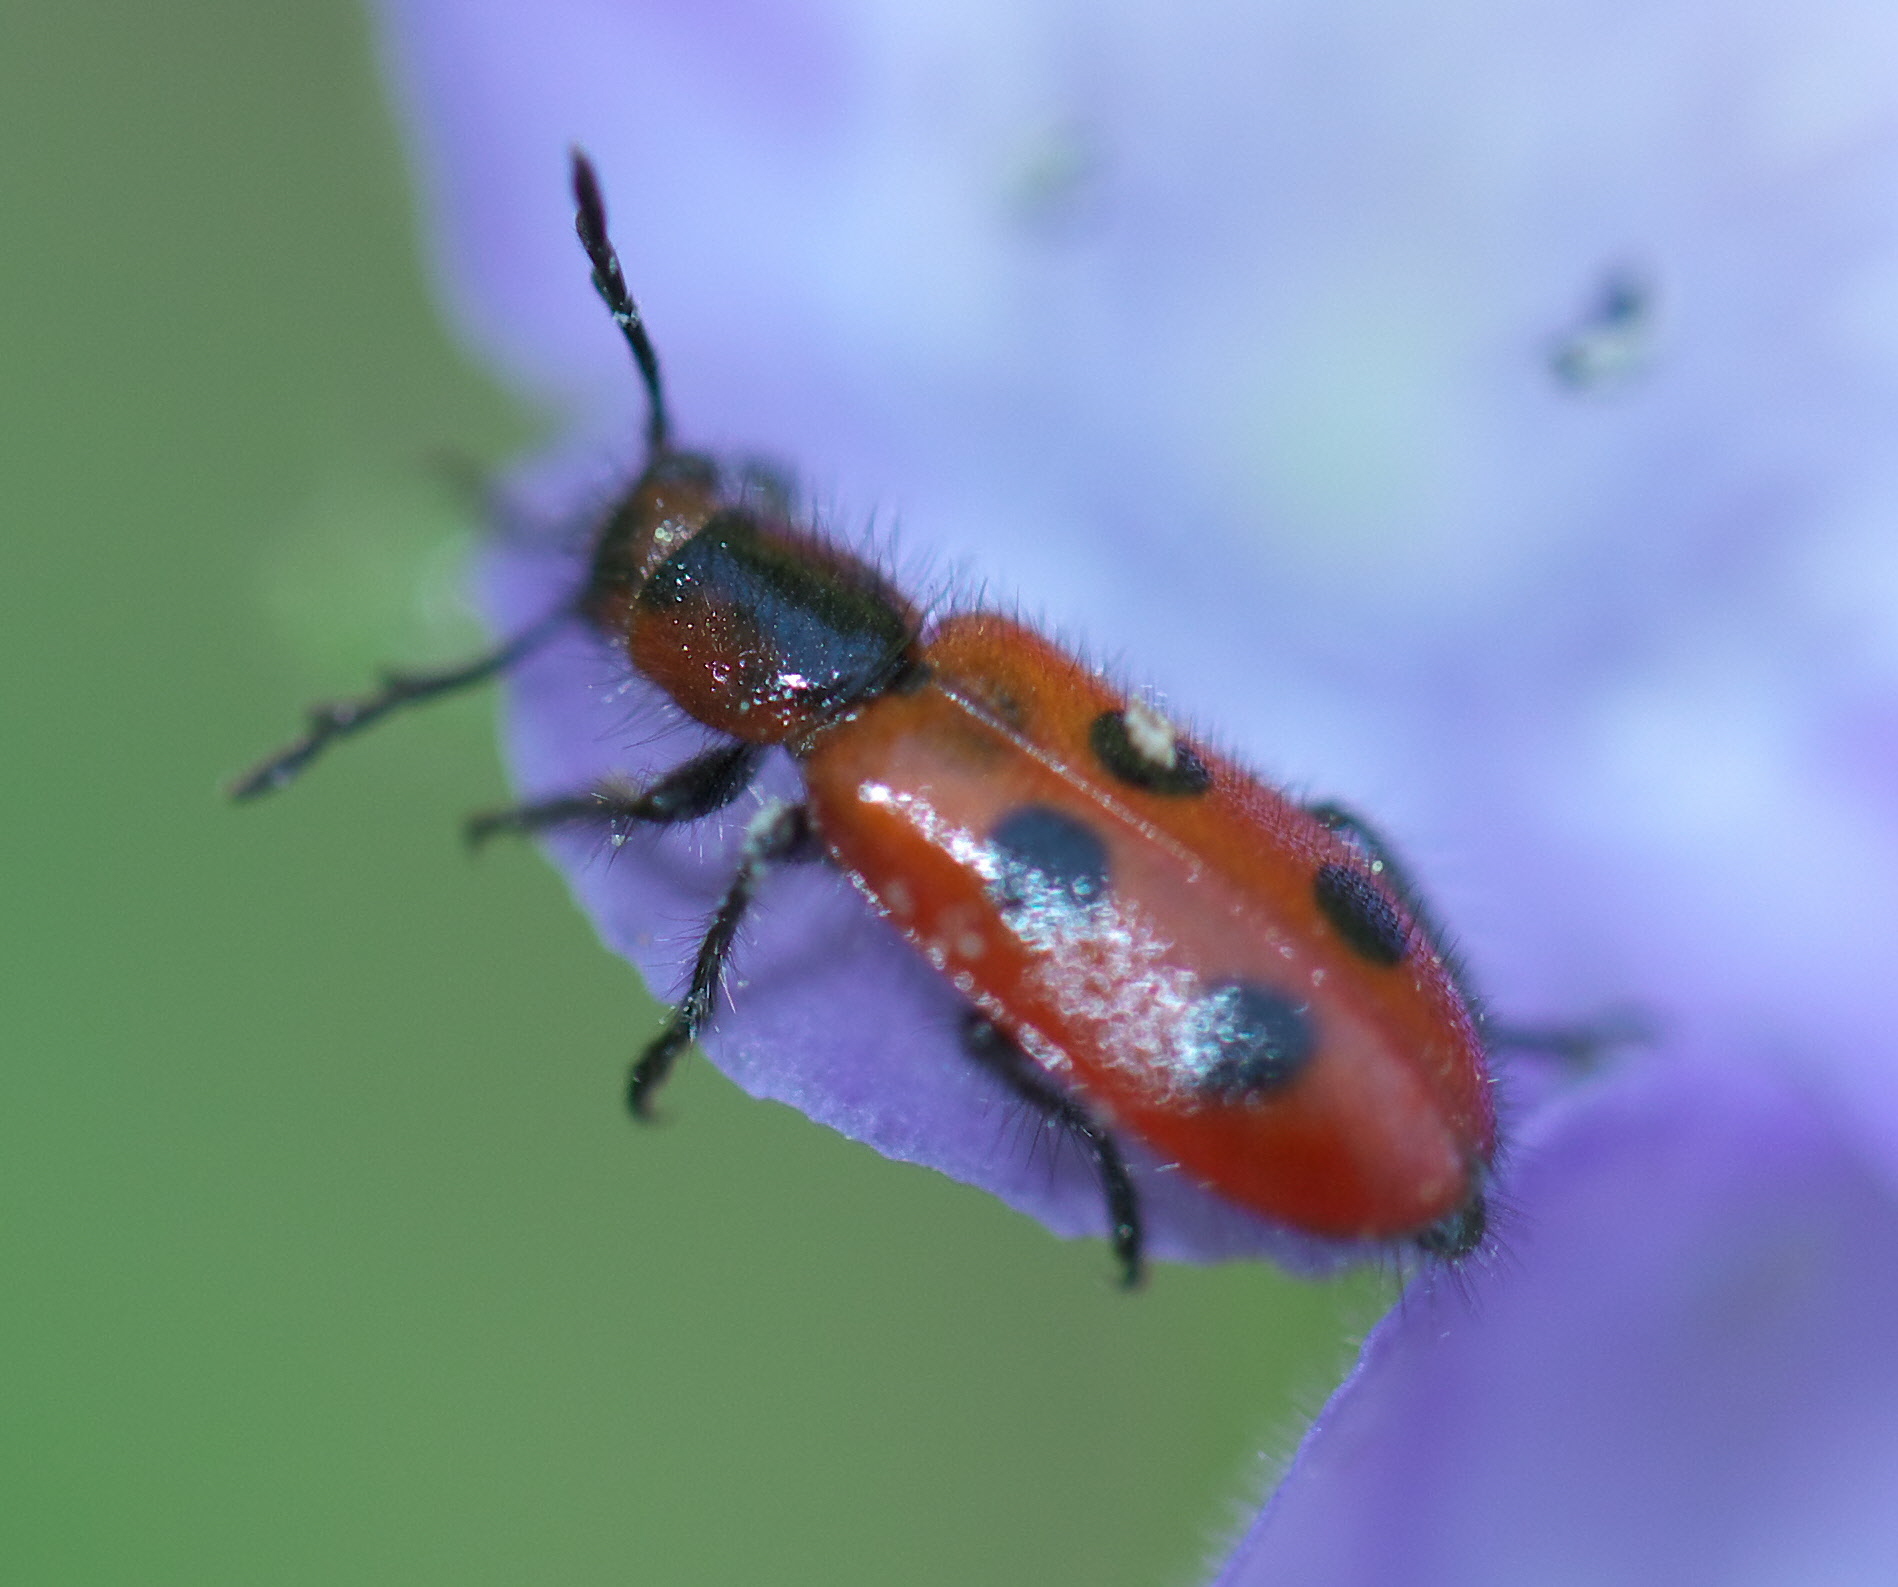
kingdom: Animalia
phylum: Arthropoda
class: Insecta
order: Coleoptera
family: Cleridae
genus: Pelonides
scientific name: Pelonides
